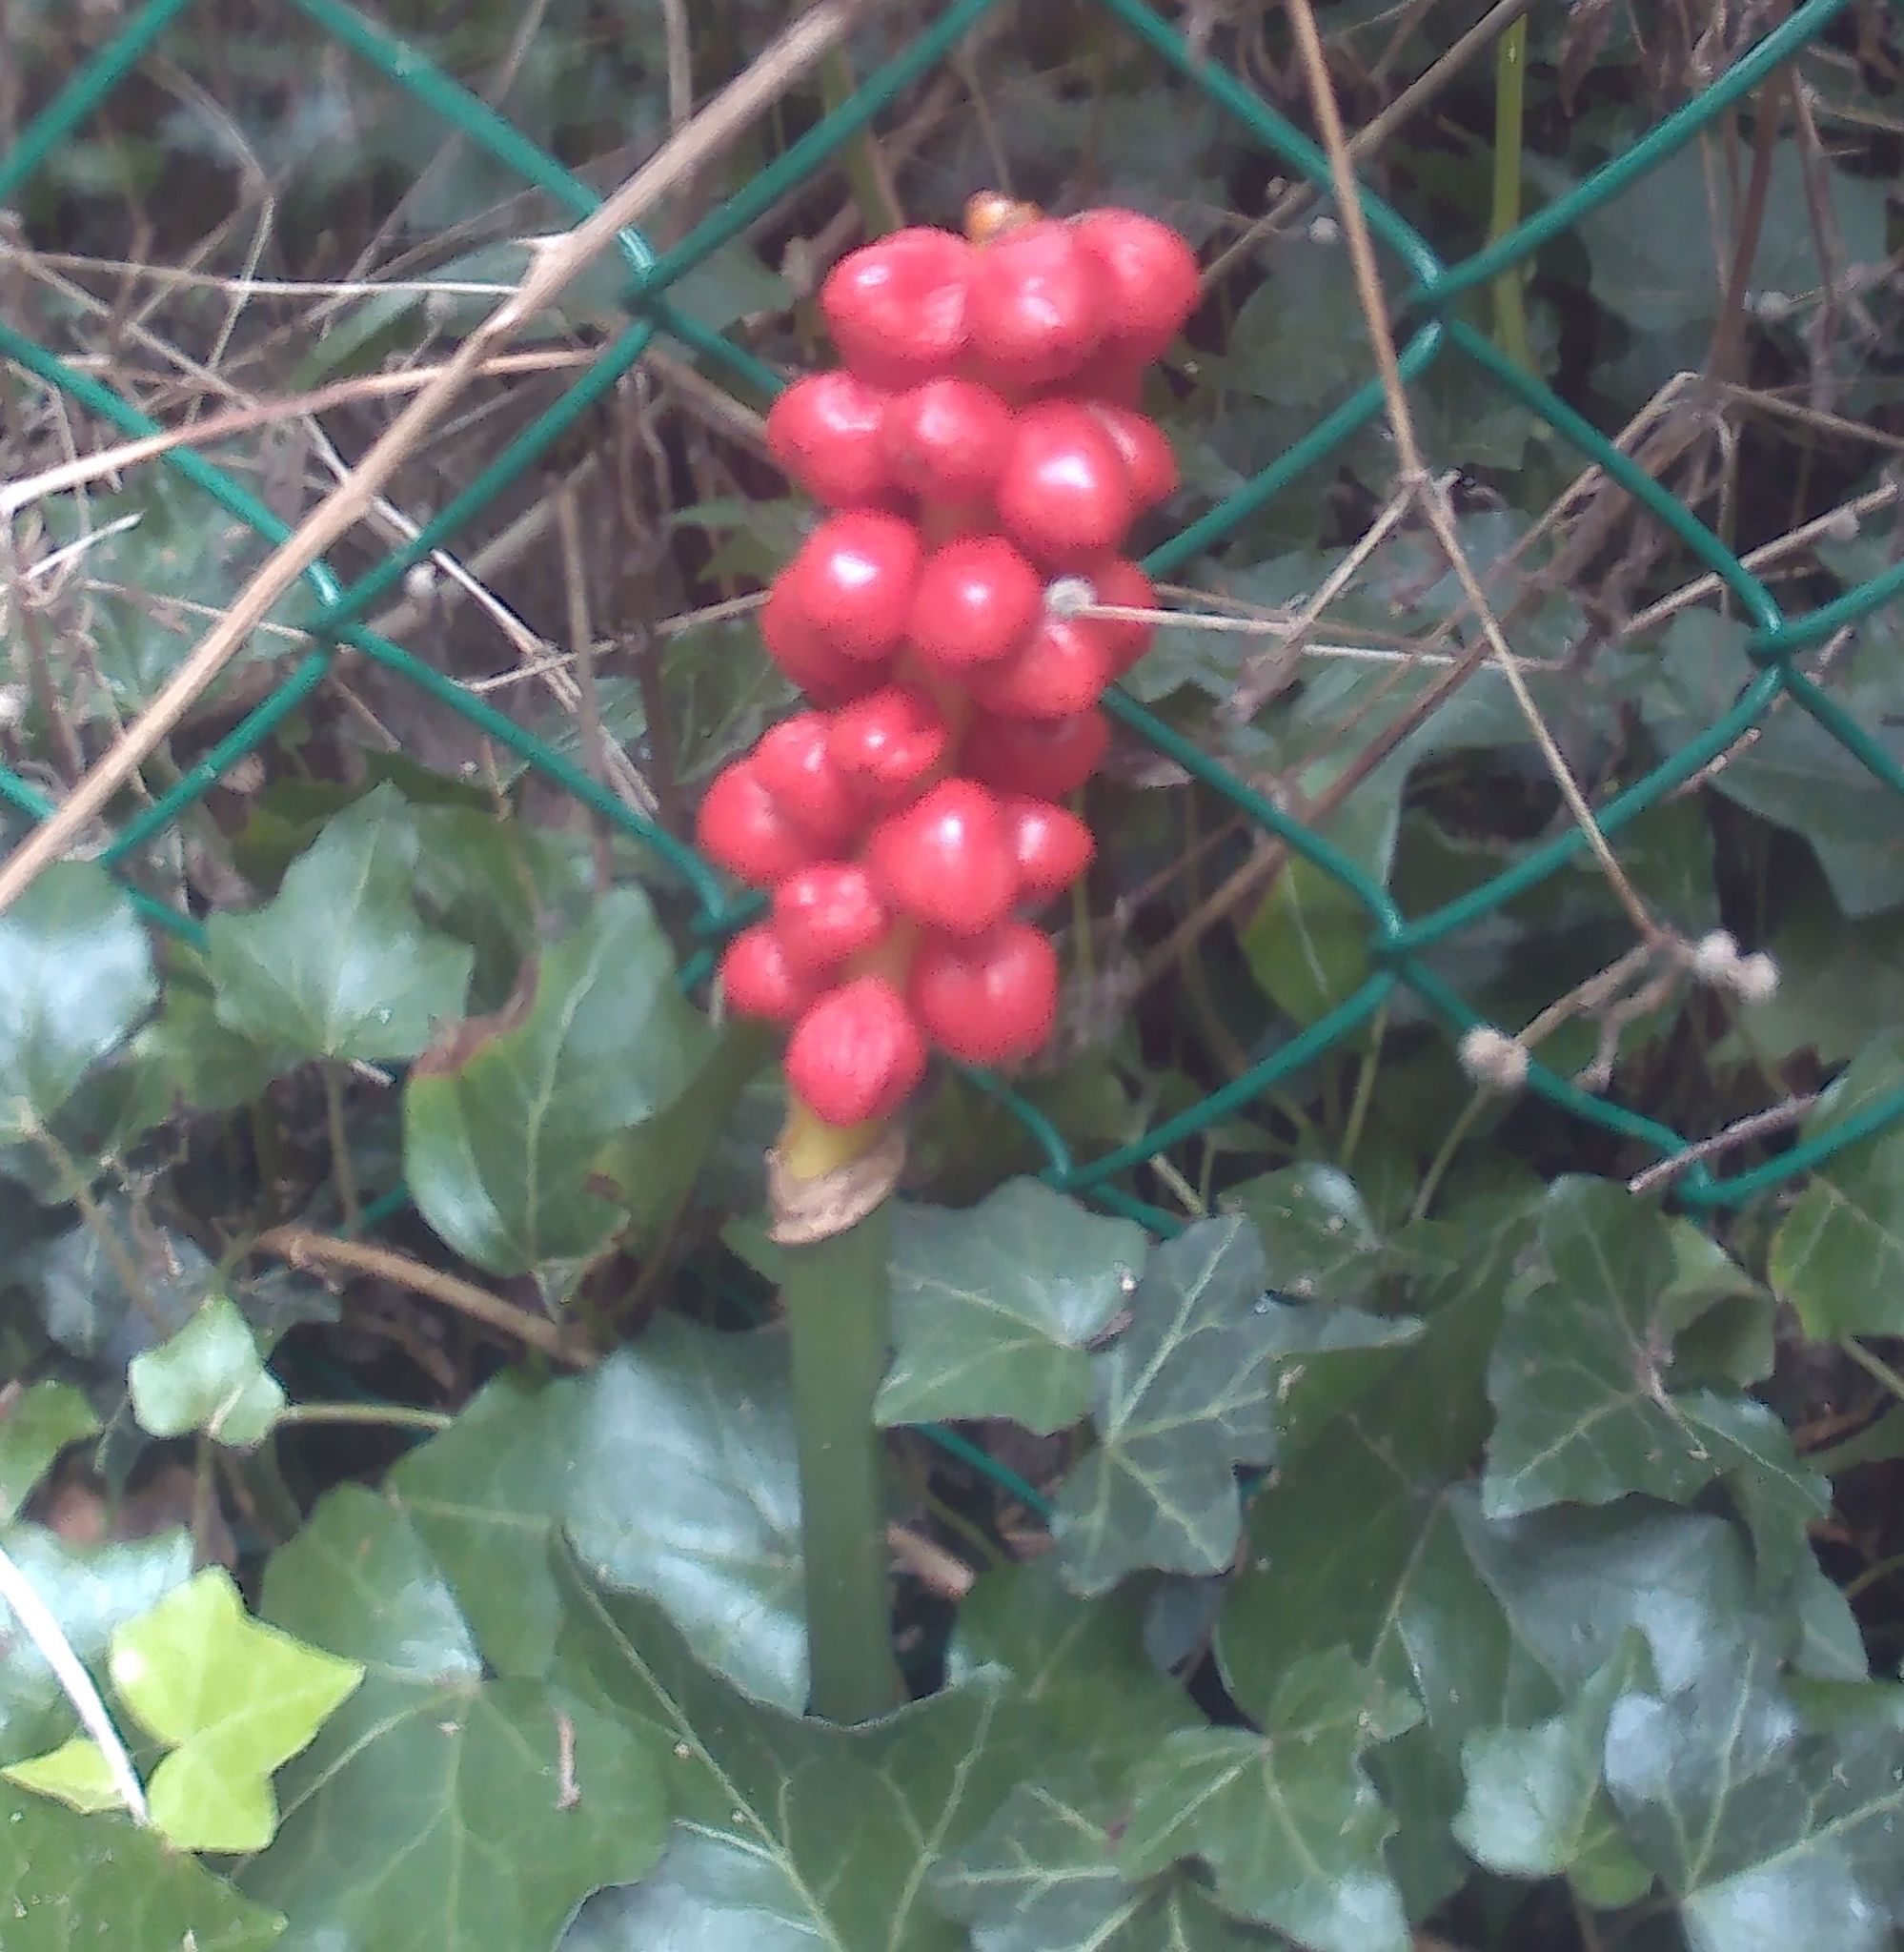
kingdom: Plantae
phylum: Tracheophyta
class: Liliopsida
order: Alismatales
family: Araceae
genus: Arum
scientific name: Arum
